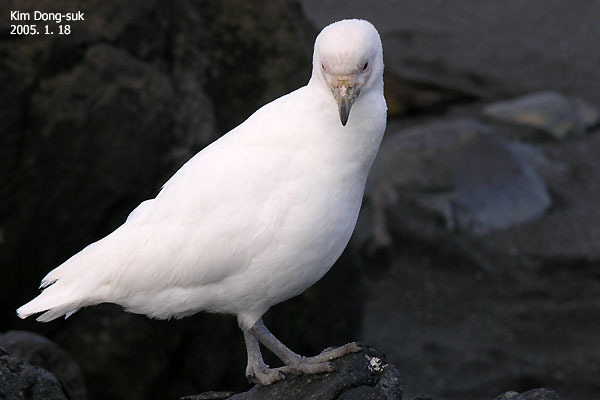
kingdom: Animalia
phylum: Chordata
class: Aves
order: Charadriiformes
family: Chionidae
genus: Chionis
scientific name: Chionis albus
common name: Snowy sheathbill
